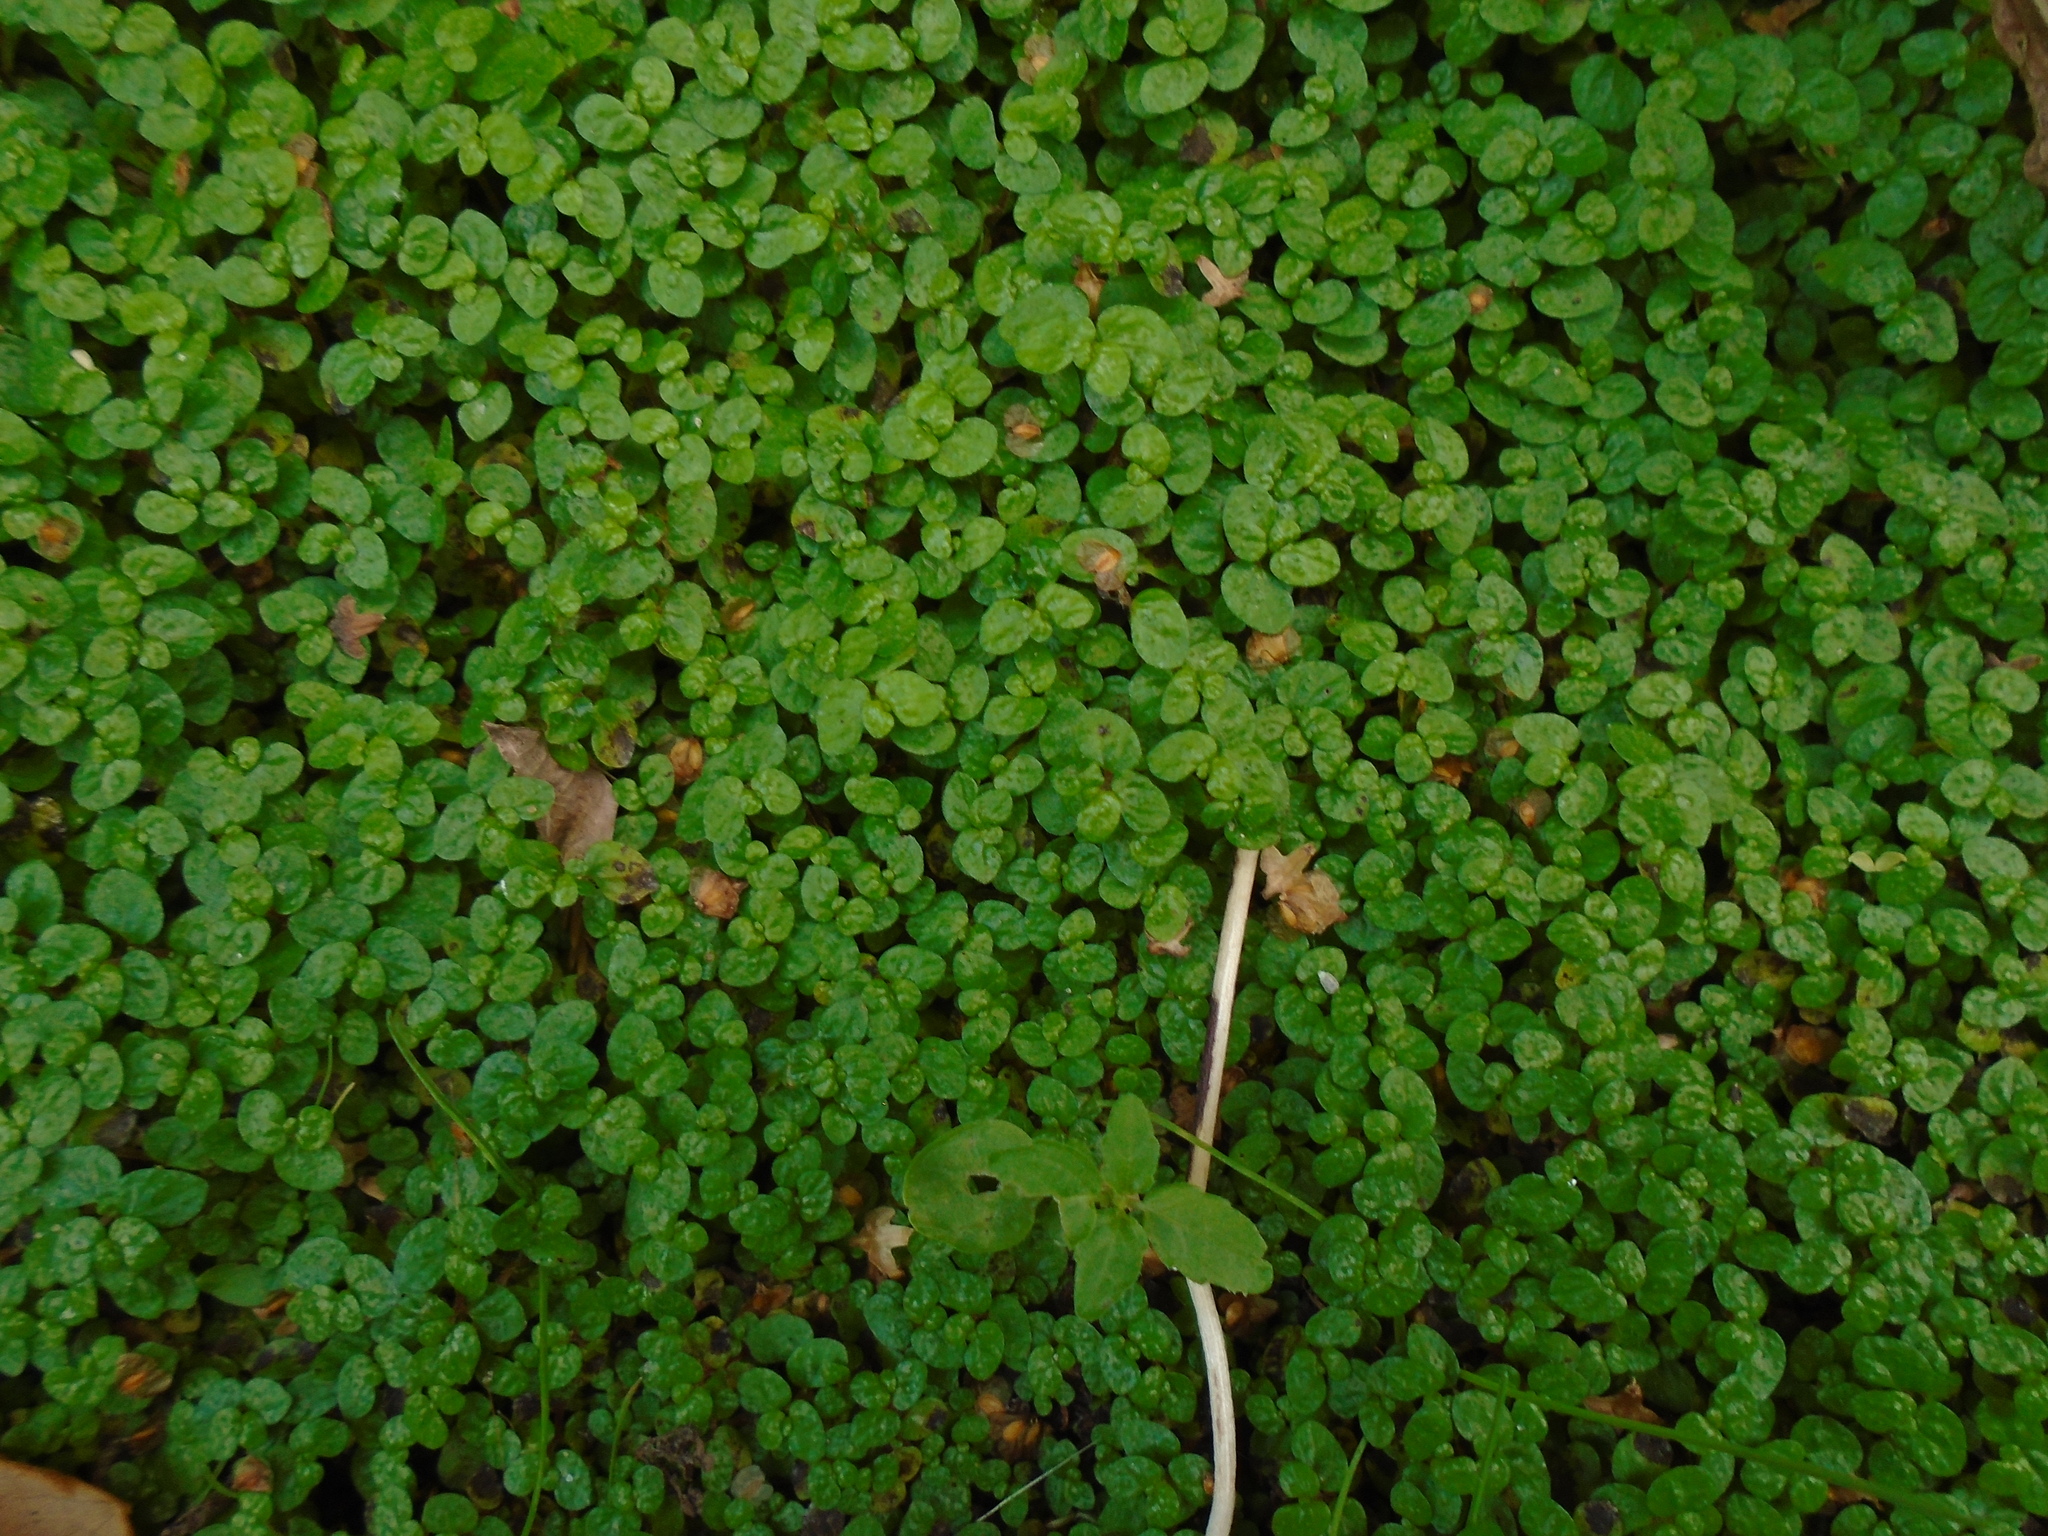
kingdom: Plantae
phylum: Tracheophyta
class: Magnoliopsida
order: Rosales
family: Urticaceae
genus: Soleirolia
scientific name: Soleirolia soleirolii
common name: Mind-your-own-business
